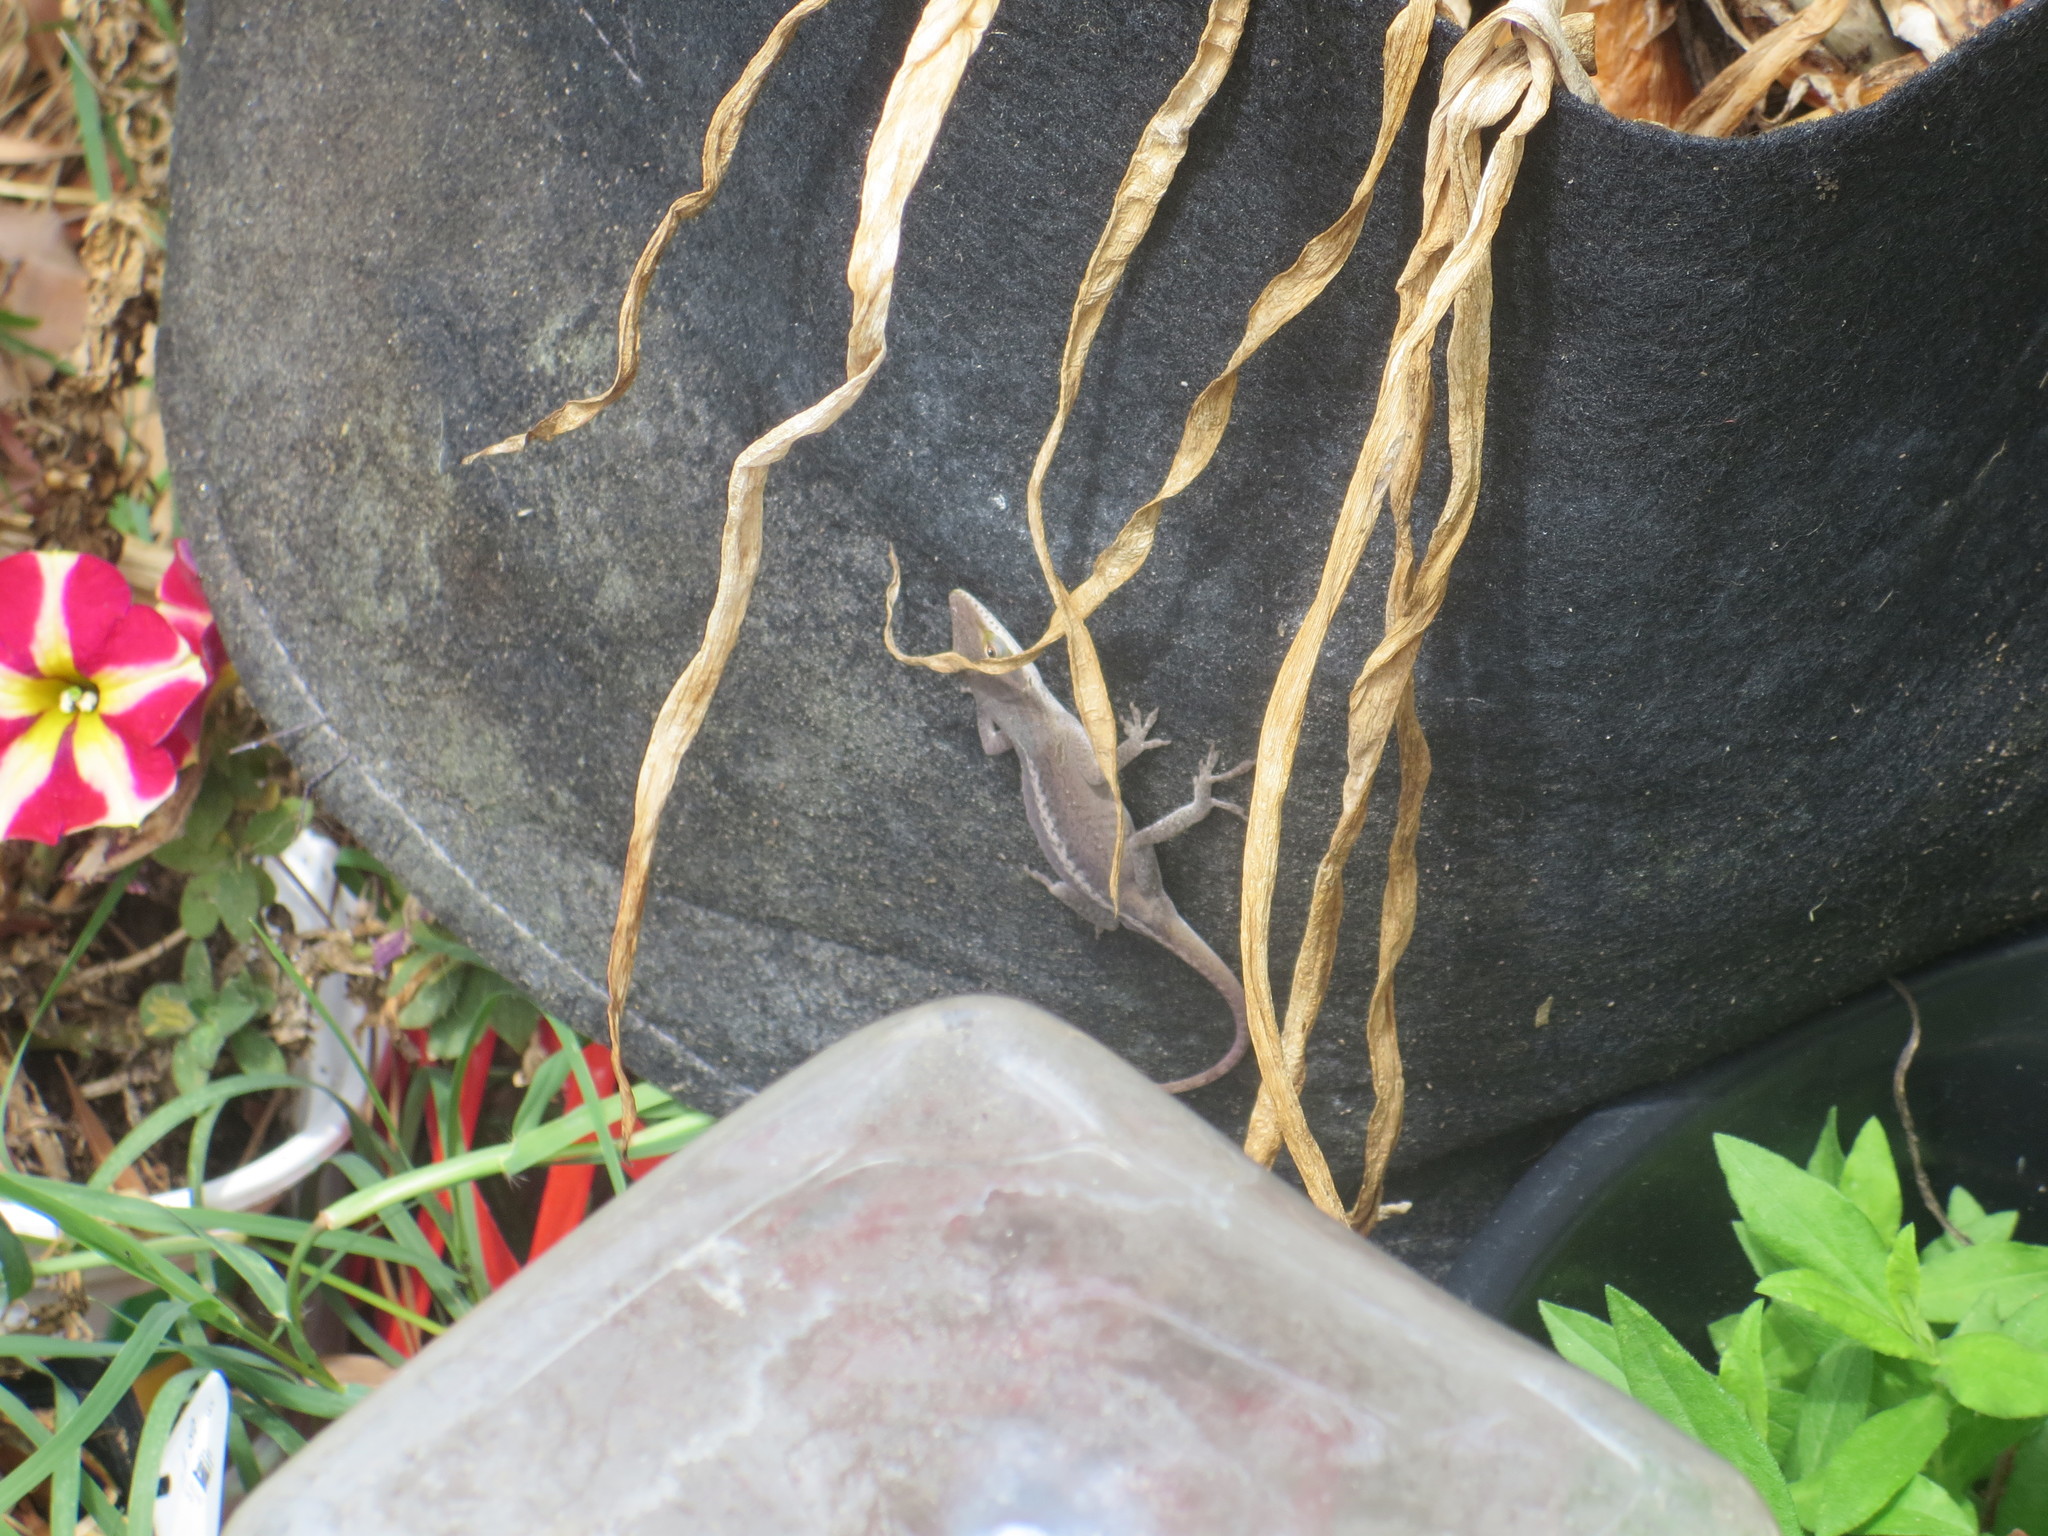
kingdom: Animalia
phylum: Chordata
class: Squamata
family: Dactyloidae
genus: Anolis
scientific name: Anolis carolinensis
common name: Green anole
